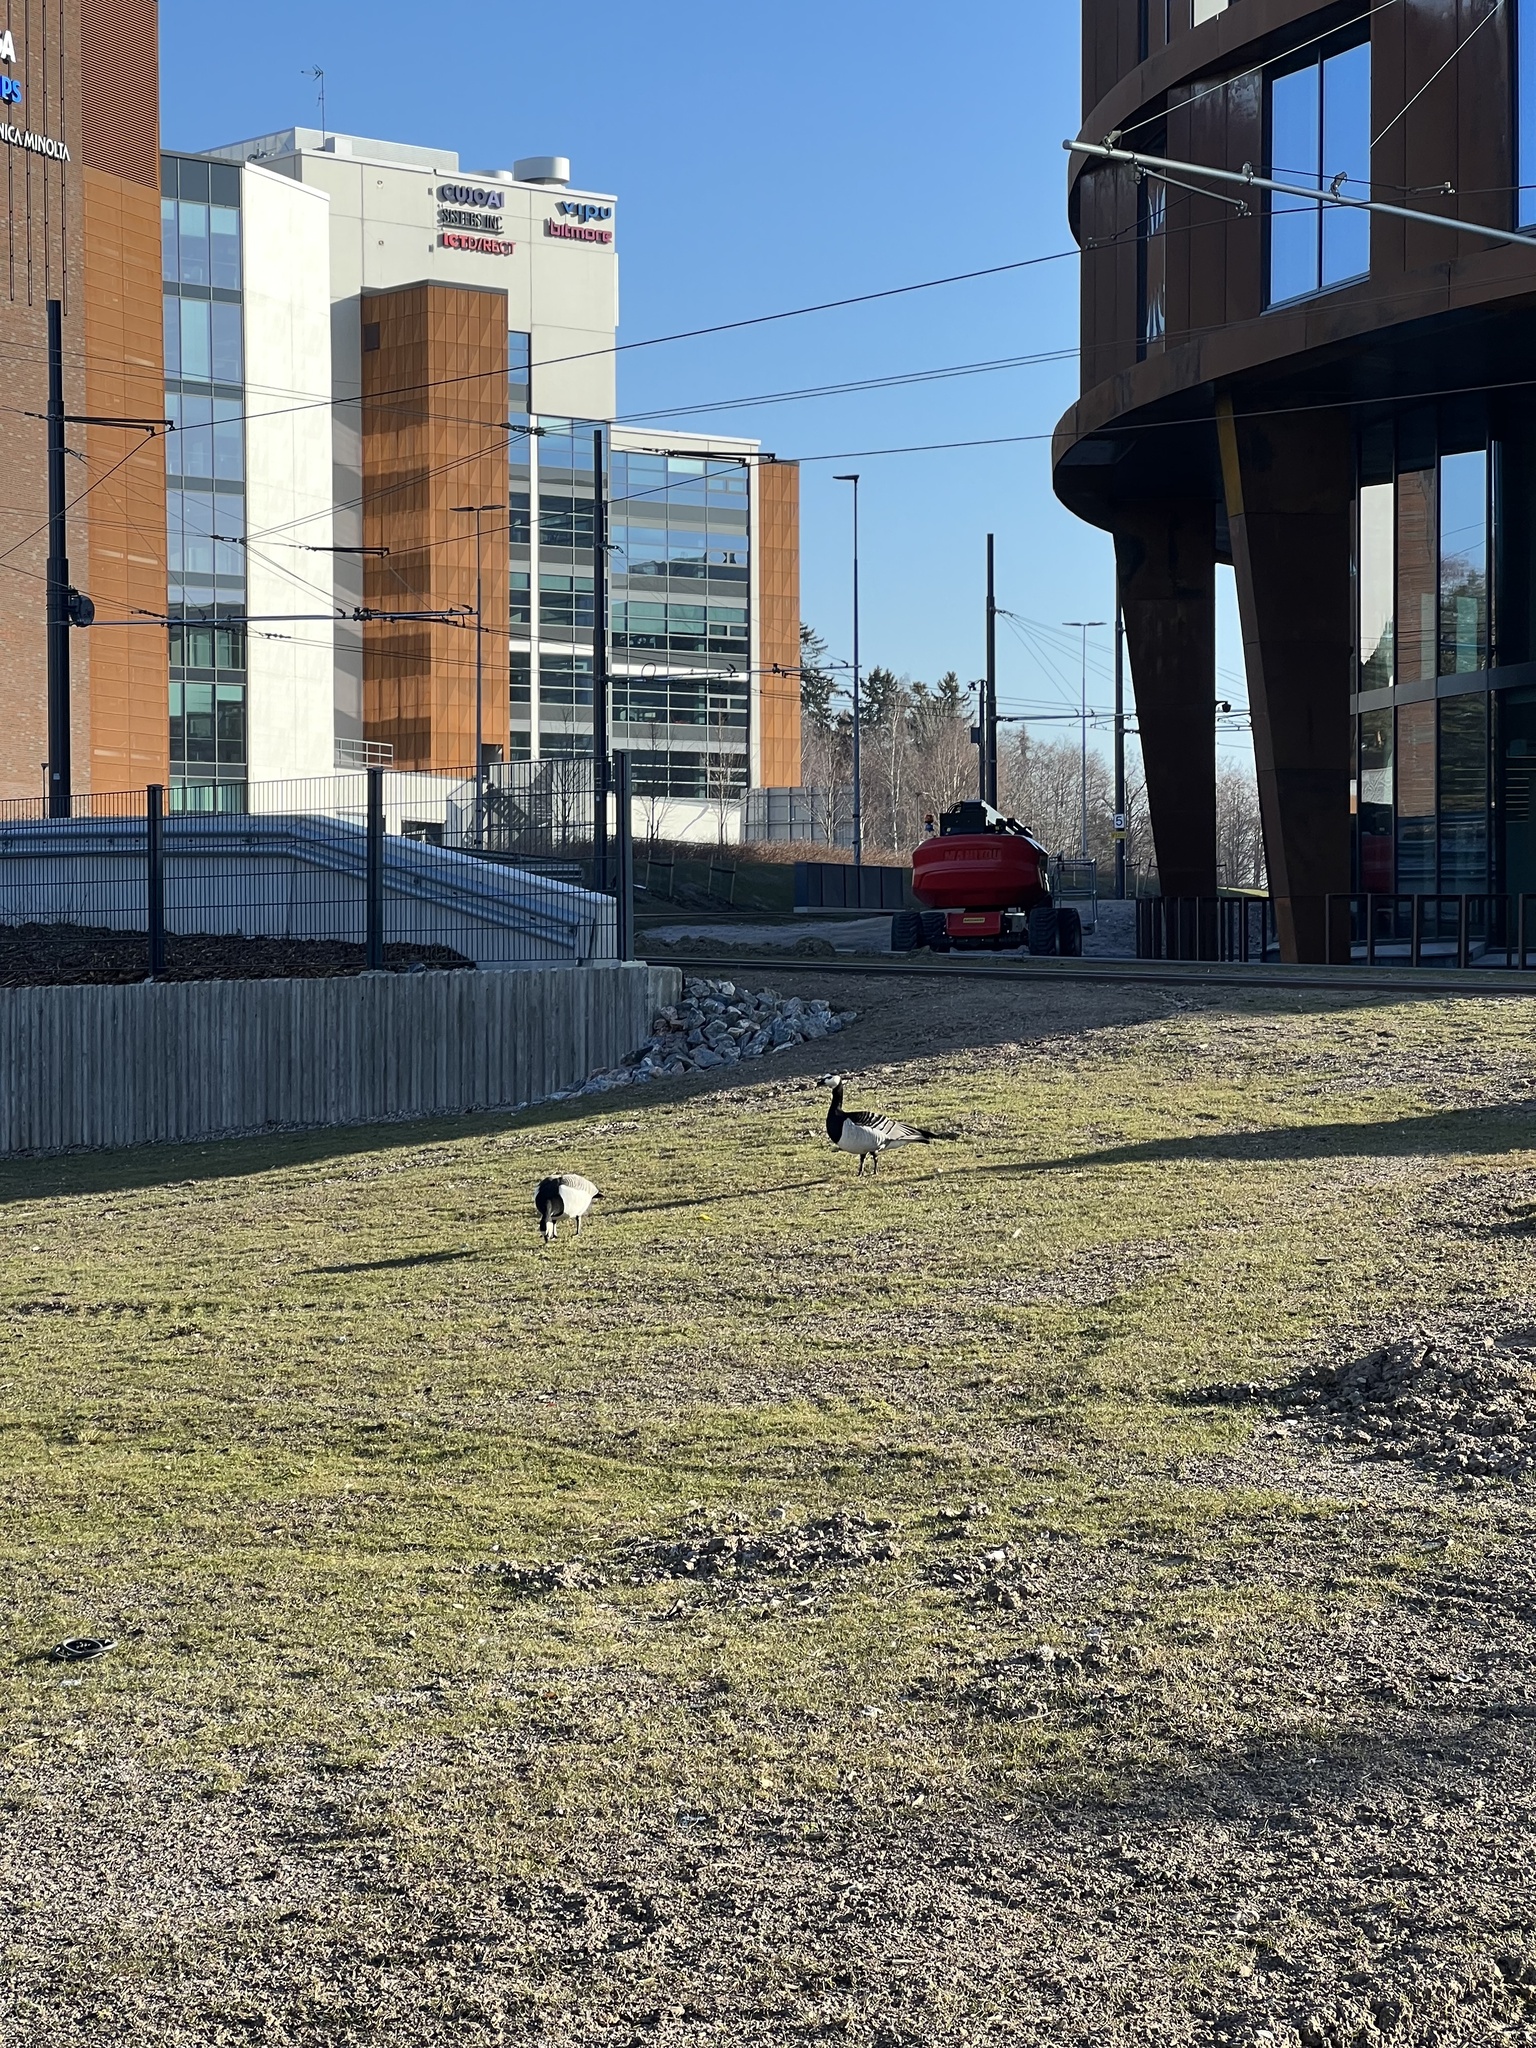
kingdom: Animalia
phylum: Chordata
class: Aves
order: Anseriformes
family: Anatidae
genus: Branta
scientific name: Branta leucopsis
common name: Barnacle goose
